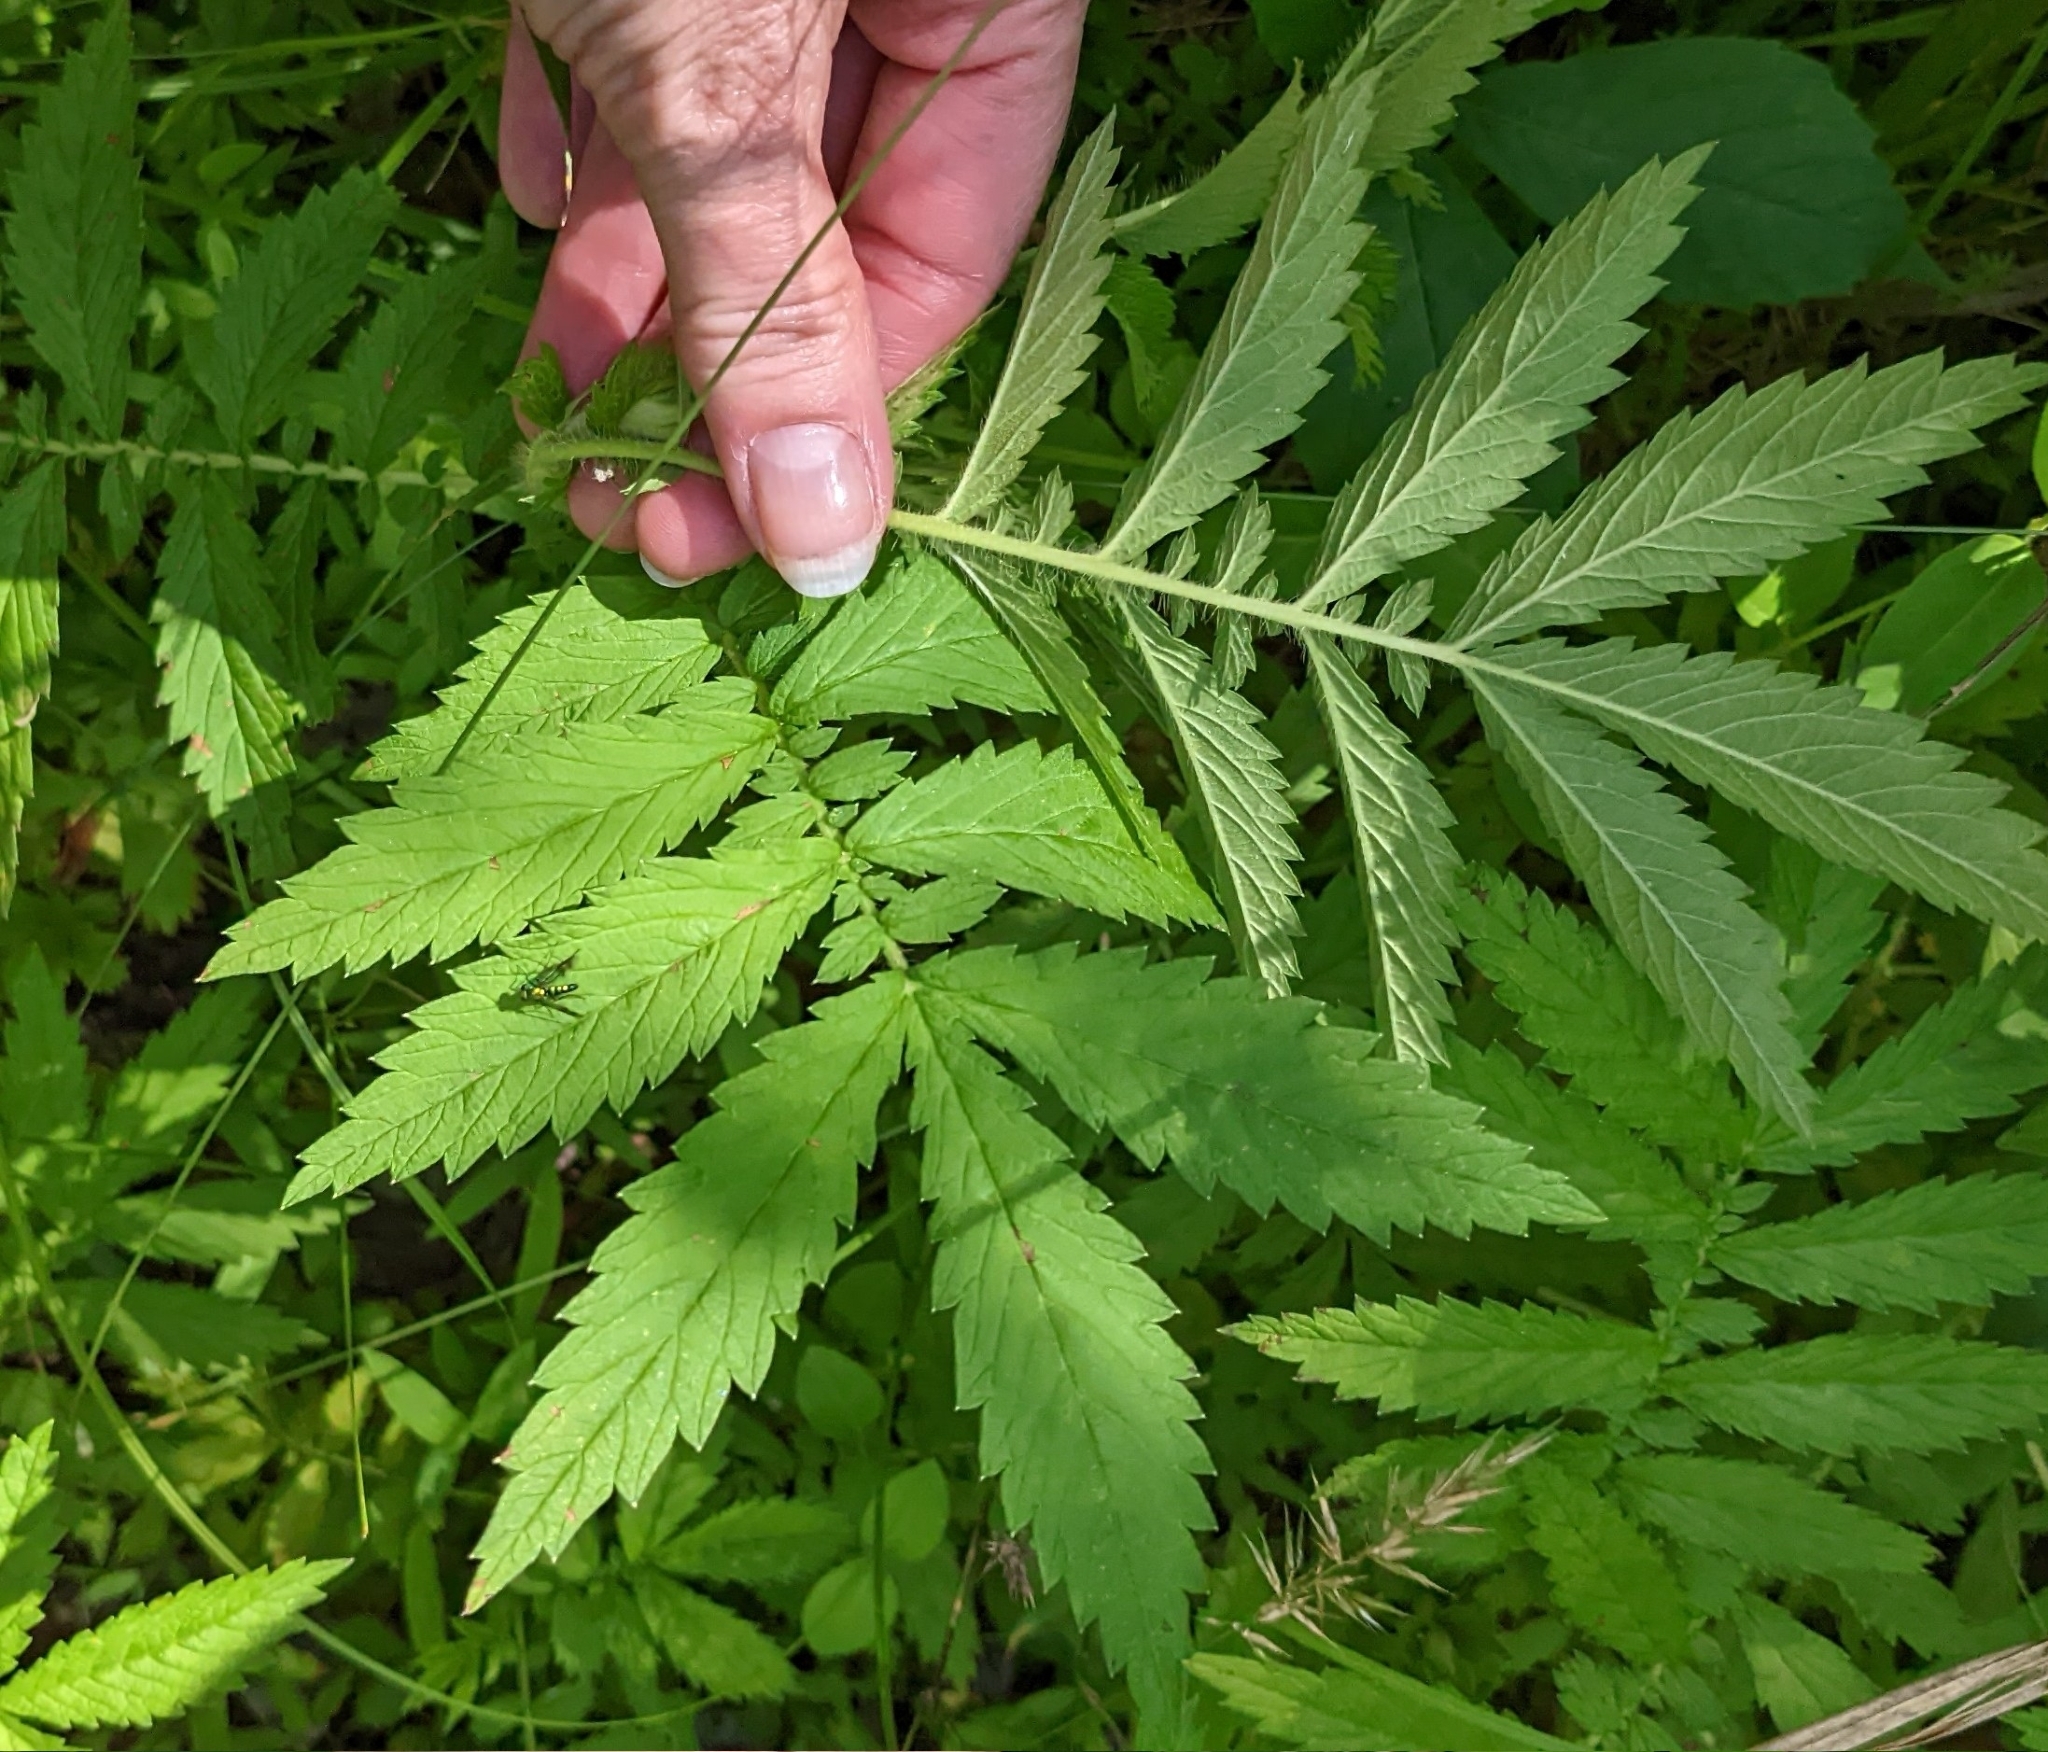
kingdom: Plantae
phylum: Tracheophyta
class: Magnoliopsida
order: Rosales
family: Rosaceae
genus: Agrimonia
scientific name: Agrimonia parviflora
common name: Harvest-lice
